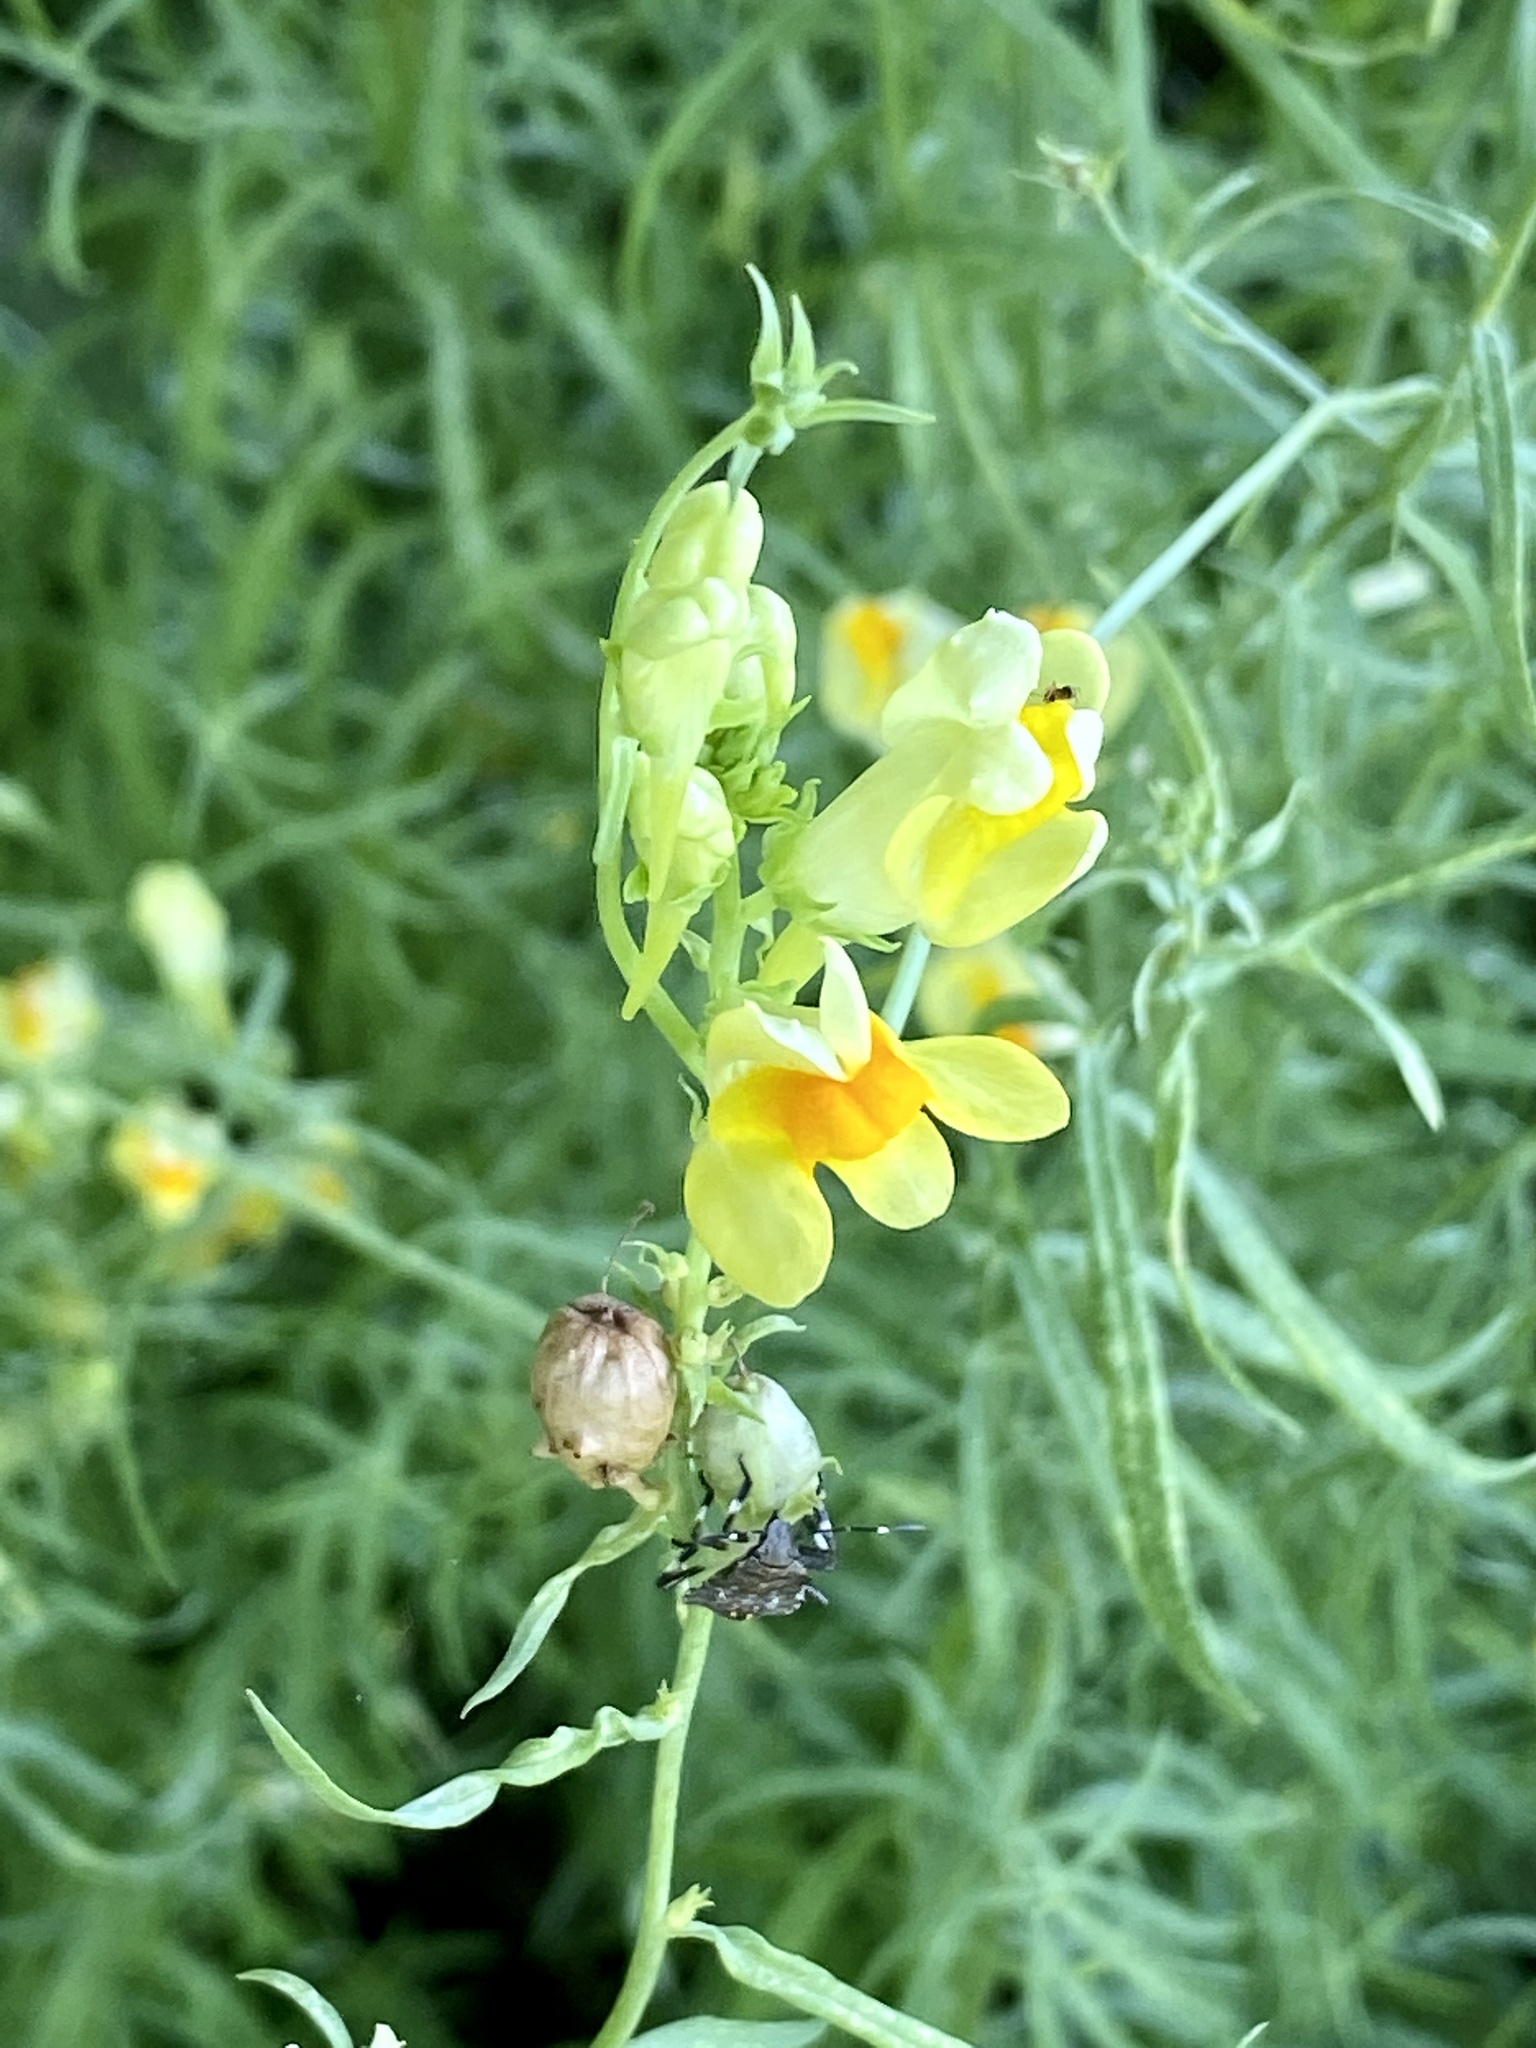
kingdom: Plantae
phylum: Tracheophyta
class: Magnoliopsida
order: Lamiales
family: Plantaginaceae
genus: Linaria
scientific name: Linaria vulgaris
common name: Butter and eggs
